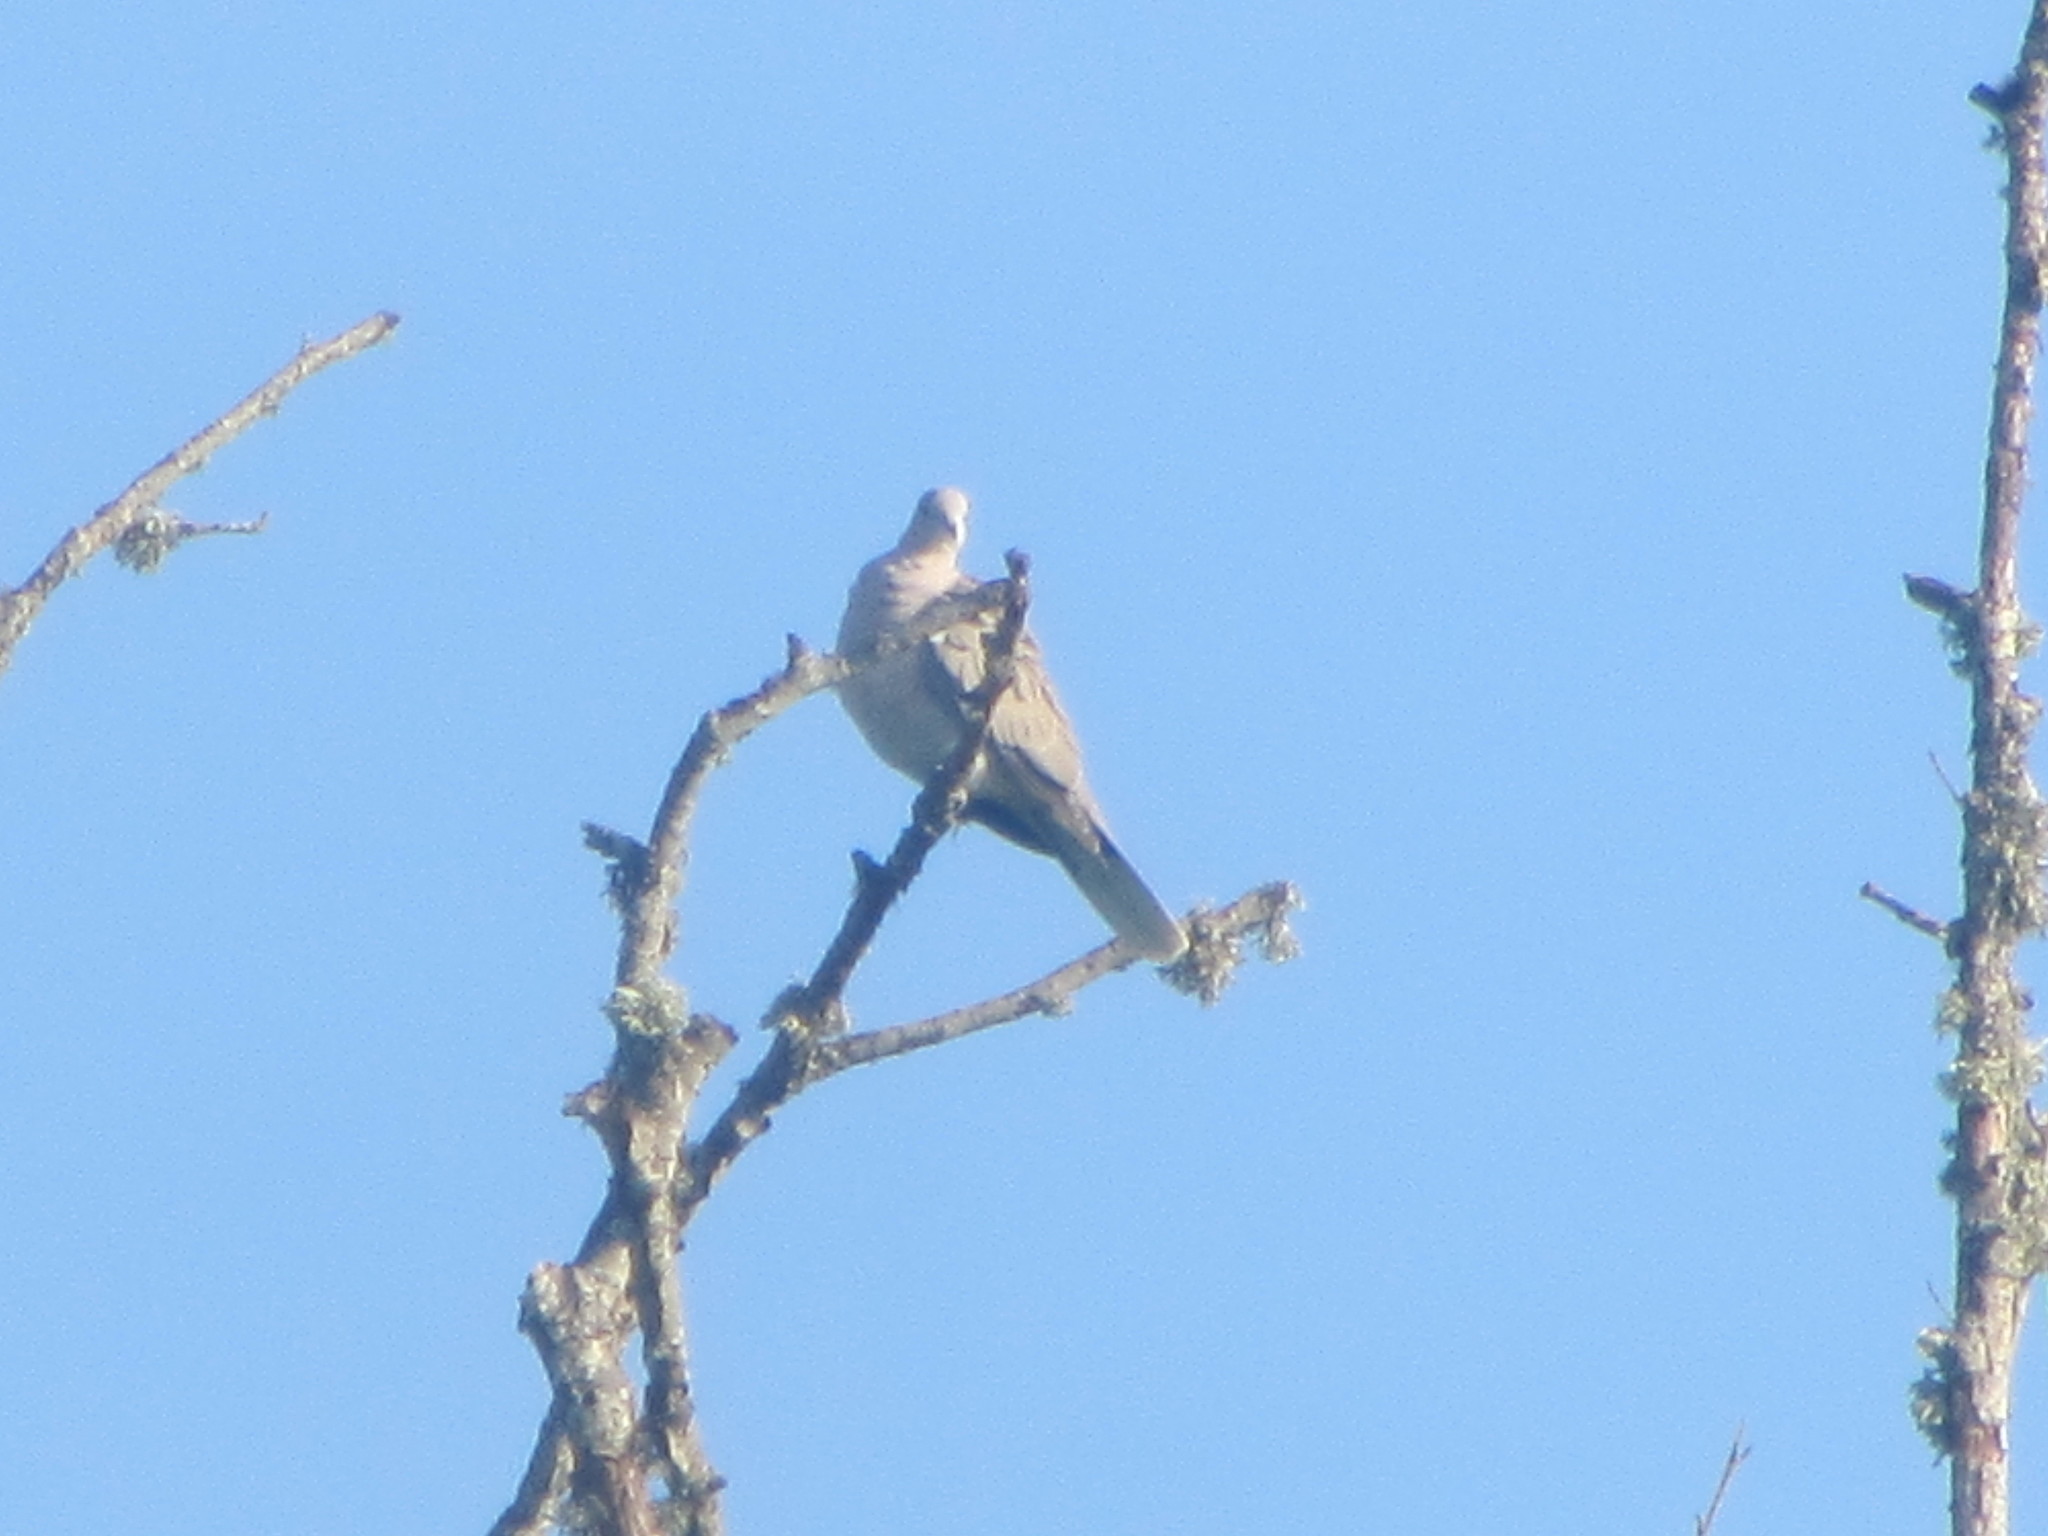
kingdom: Animalia
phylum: Chordata
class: Aves
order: Columbiformes
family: Columbidae
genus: Streptopelia
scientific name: Streptopelia decaocto
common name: Eurasian collared dove
